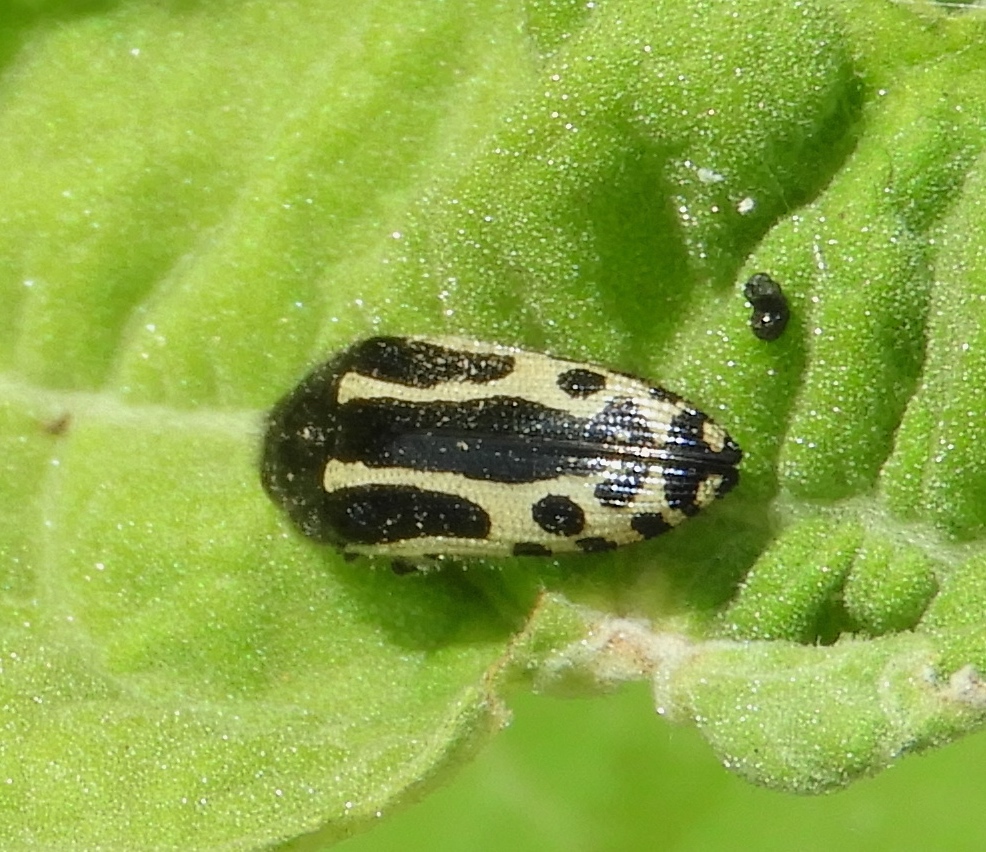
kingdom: Animalia
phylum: Arthropoda
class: Insecta
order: Coleoptera
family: Buprestidae
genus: Acmaeodera
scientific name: Acmaeodera scalaris
